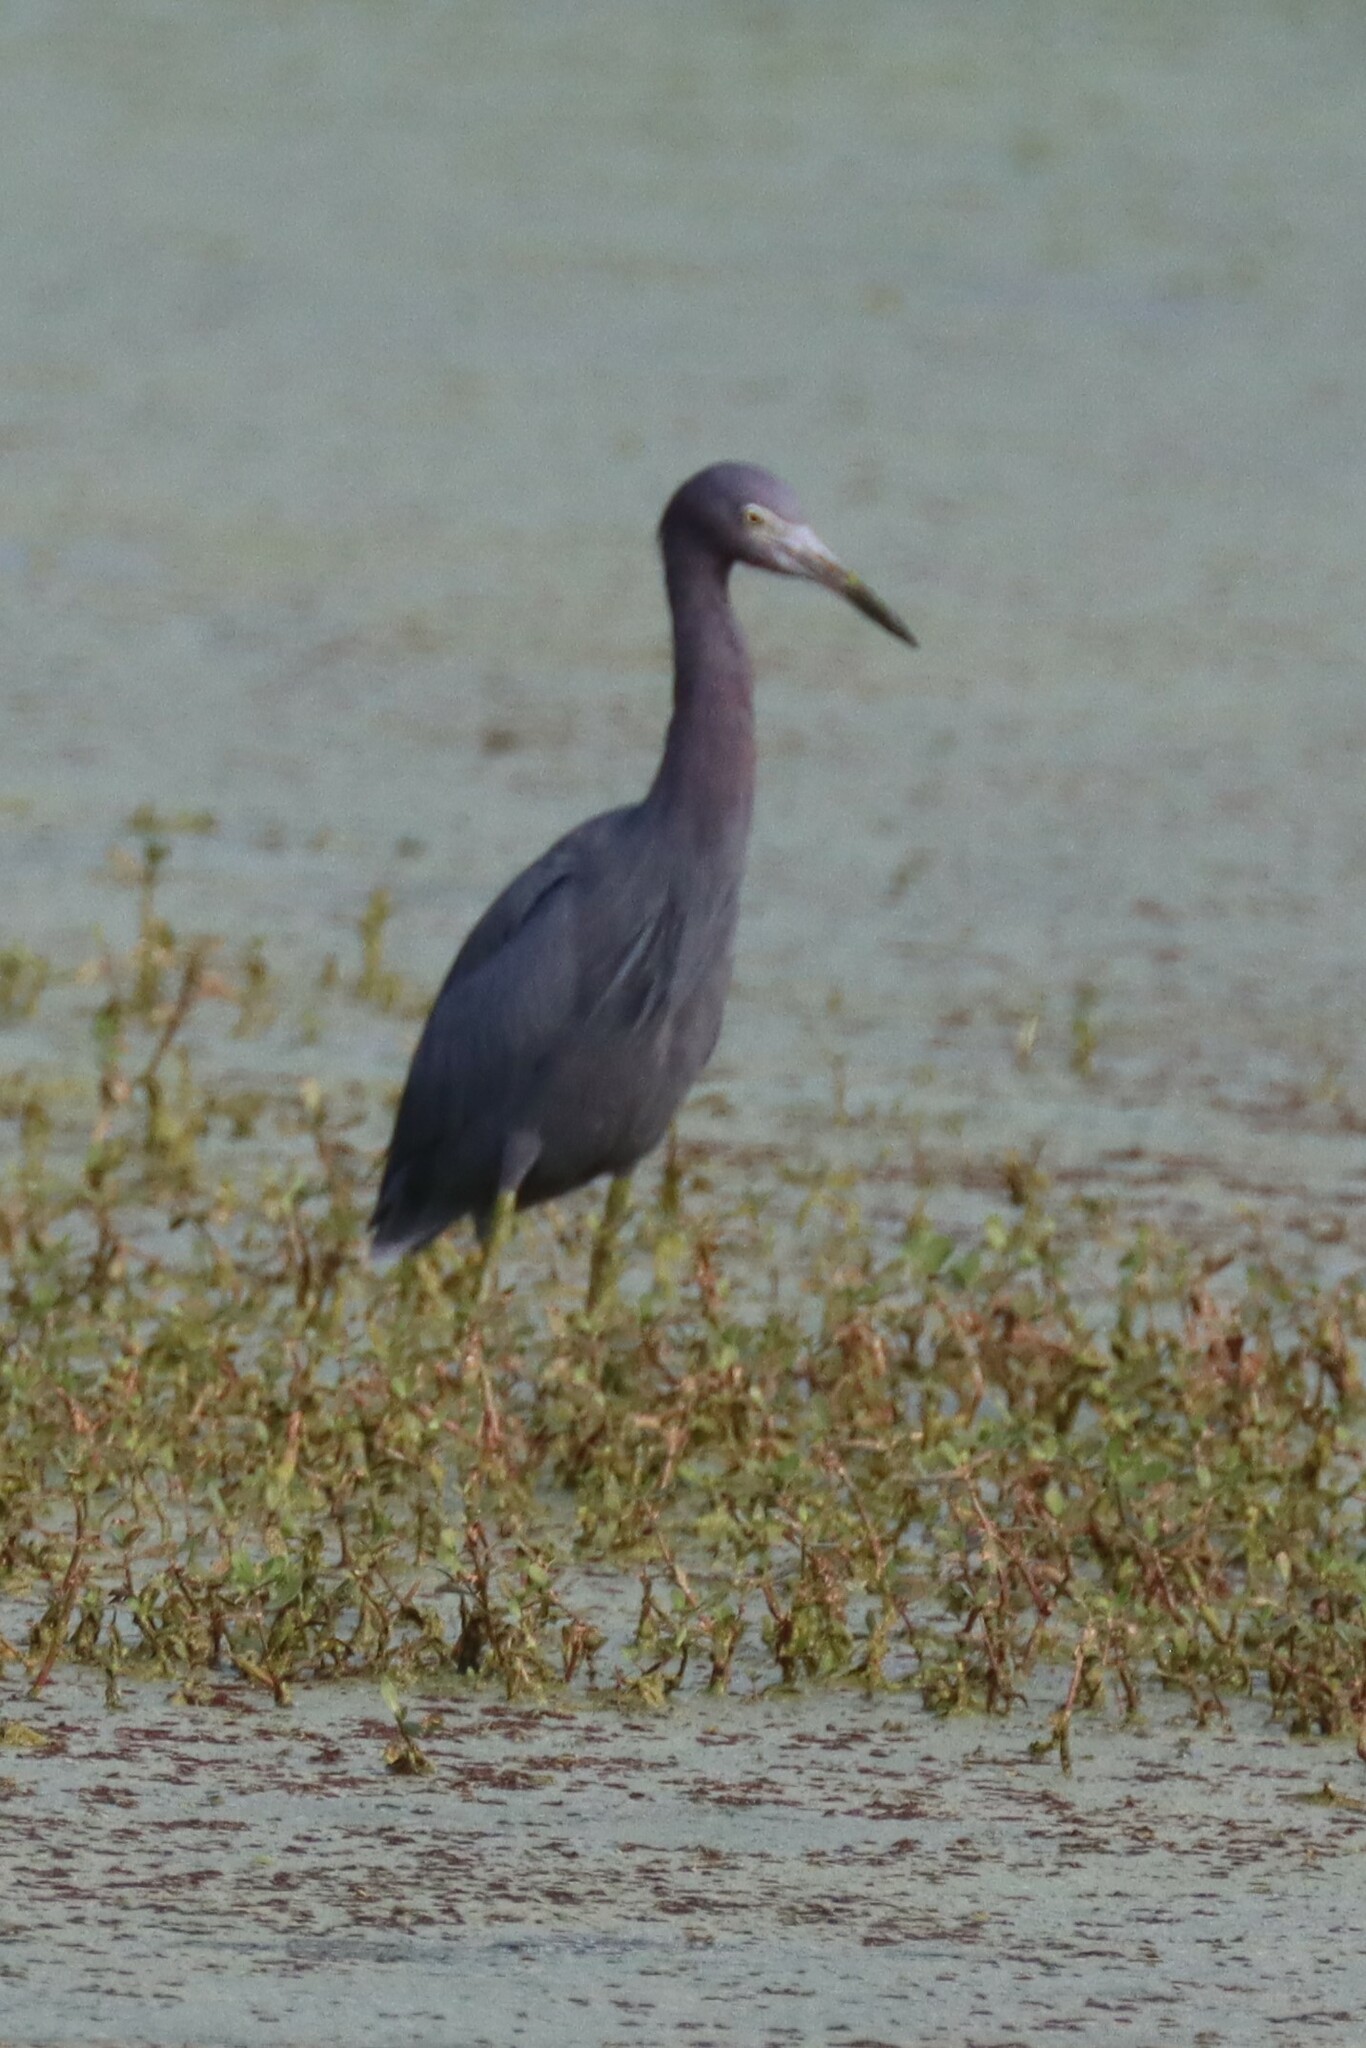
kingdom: Animalia
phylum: Chordata
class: Aves
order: Pelecaniformes
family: Ardeidae
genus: Egretta
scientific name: Egretta caerulea
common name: Little blue heron
